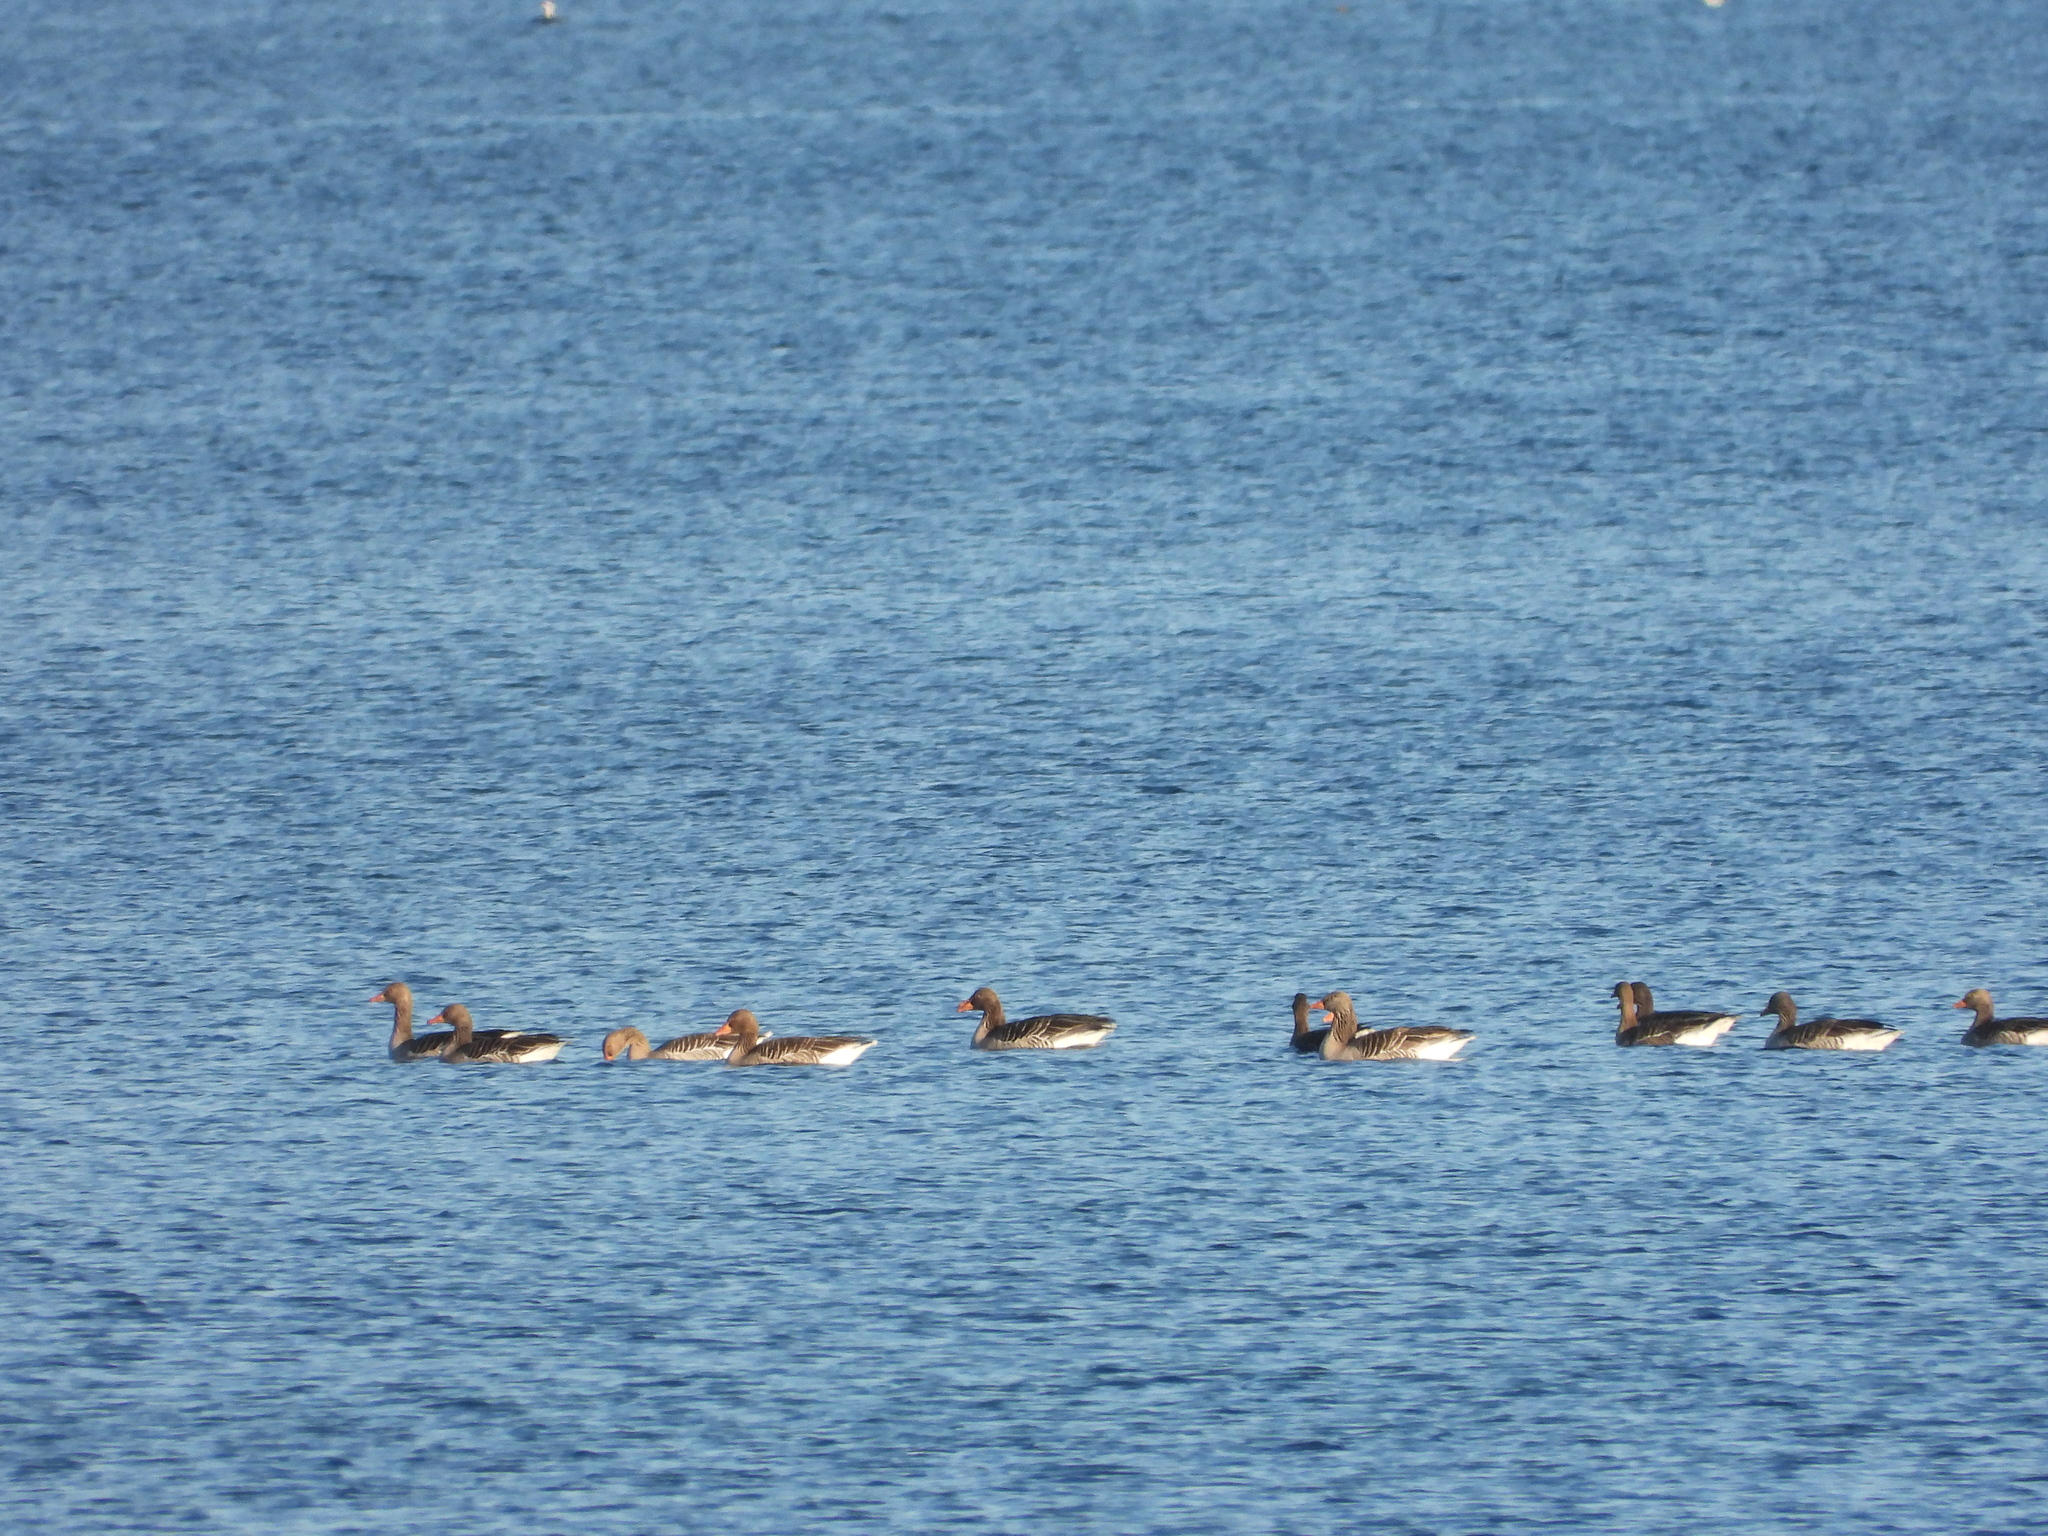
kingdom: Animalia
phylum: Chordata
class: Aves
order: Anseriformes
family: Anatidae
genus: Anser
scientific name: Anser anser
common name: Greylag goose
